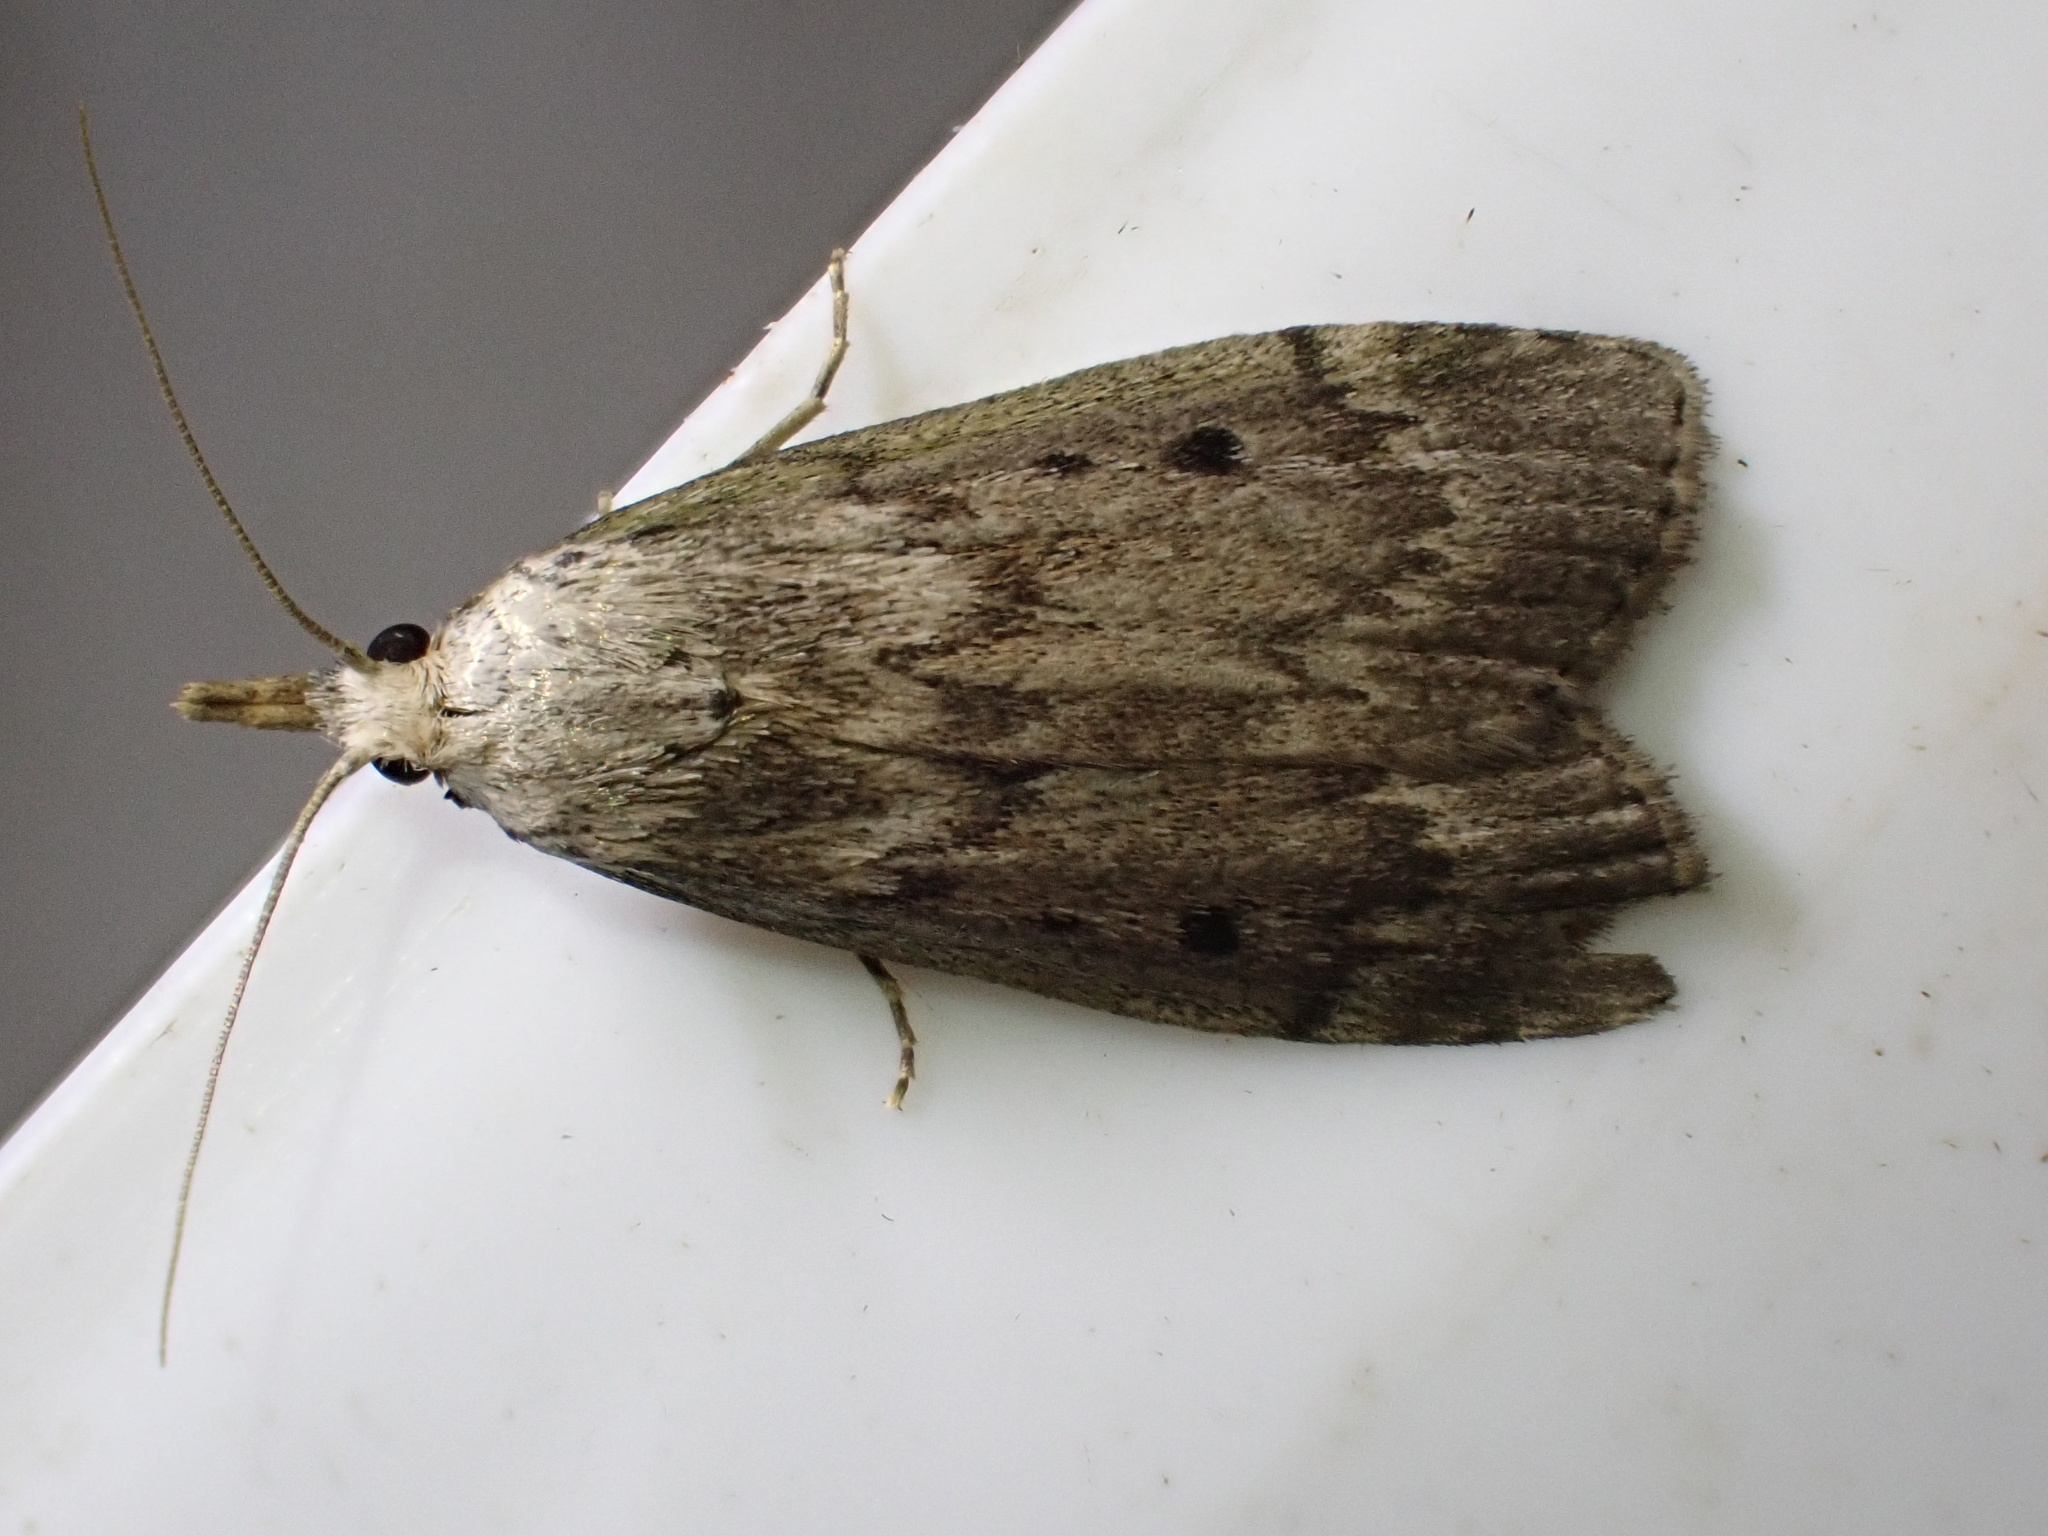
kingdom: Animalia
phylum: Arthropoda
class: Insecta
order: Lepidoptera
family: Pyralidae
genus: Aphomia
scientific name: Aphomia sociella
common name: Bee moth
